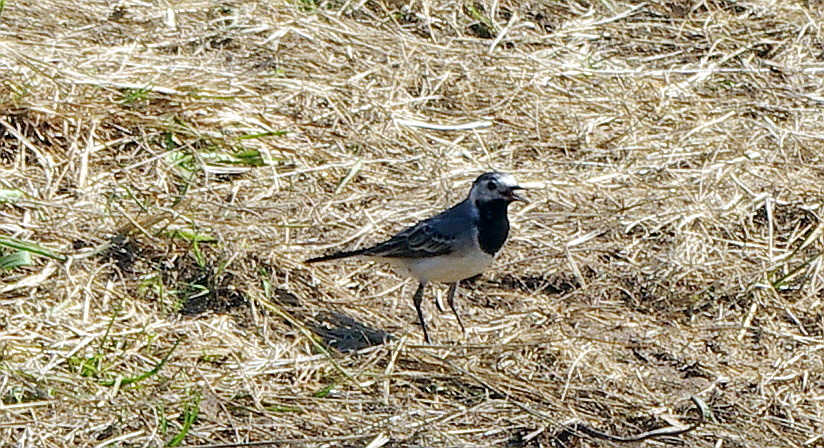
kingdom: Animalia
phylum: Chordata
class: Aves
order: Passeriformes
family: Motacillidae
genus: Motacilla
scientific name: Motacilla alba
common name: White wagtail
